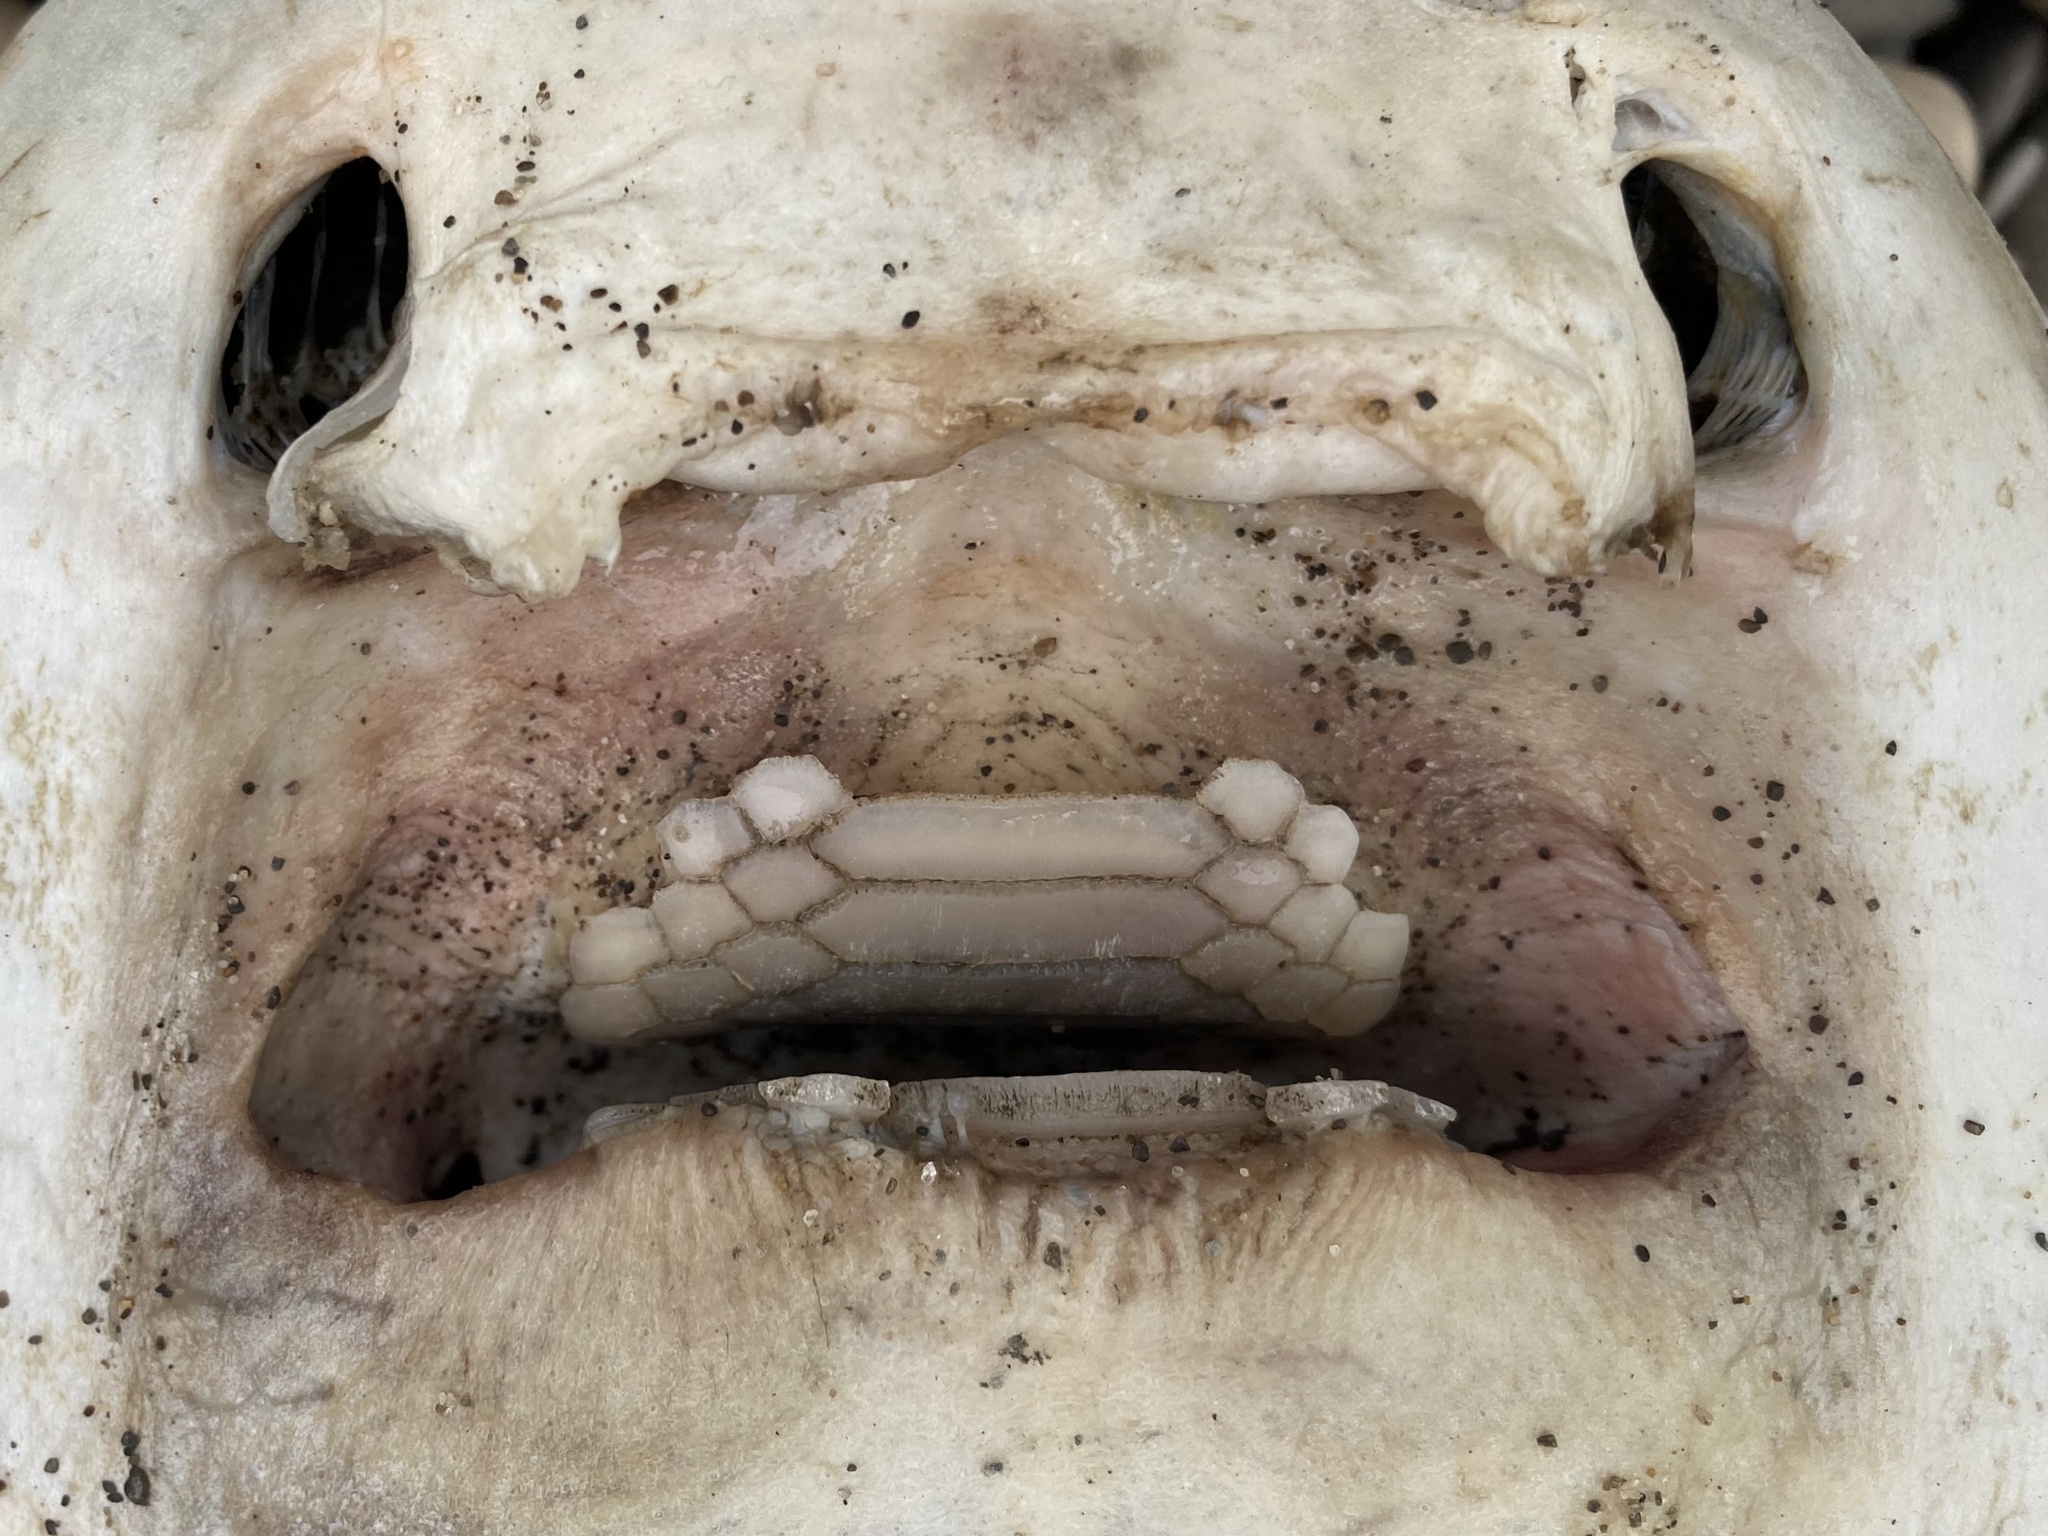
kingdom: Animalia
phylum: Chordata
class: Elasmobranchii
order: Myliobatiformes
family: Myliobatidae
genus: Myliobatis
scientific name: Myliobatis californica
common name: Bat ray
